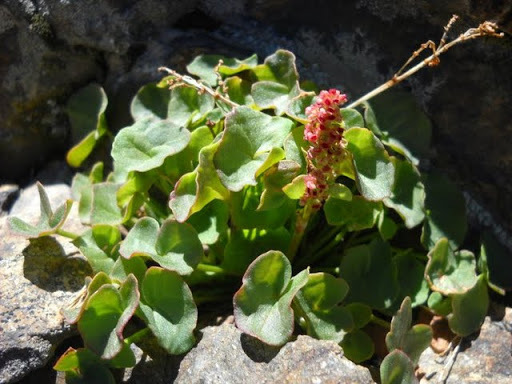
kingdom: Plantae
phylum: Tracheophyta
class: Magnoliopsida
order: Caryophyllales
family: Polygonaceae
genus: Oxyria
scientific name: Oxyria digyna
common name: Alpine mountain-sorrel
